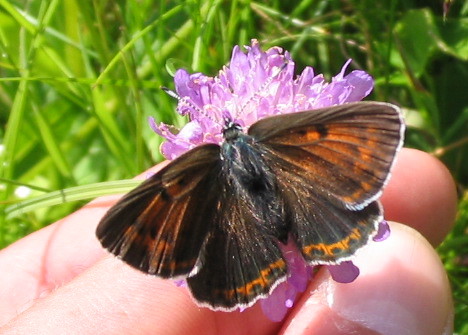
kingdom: Animalia
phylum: Arthropoda
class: Insecta
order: Lepidoptera
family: Lycaenidae
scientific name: Lycaenidae
